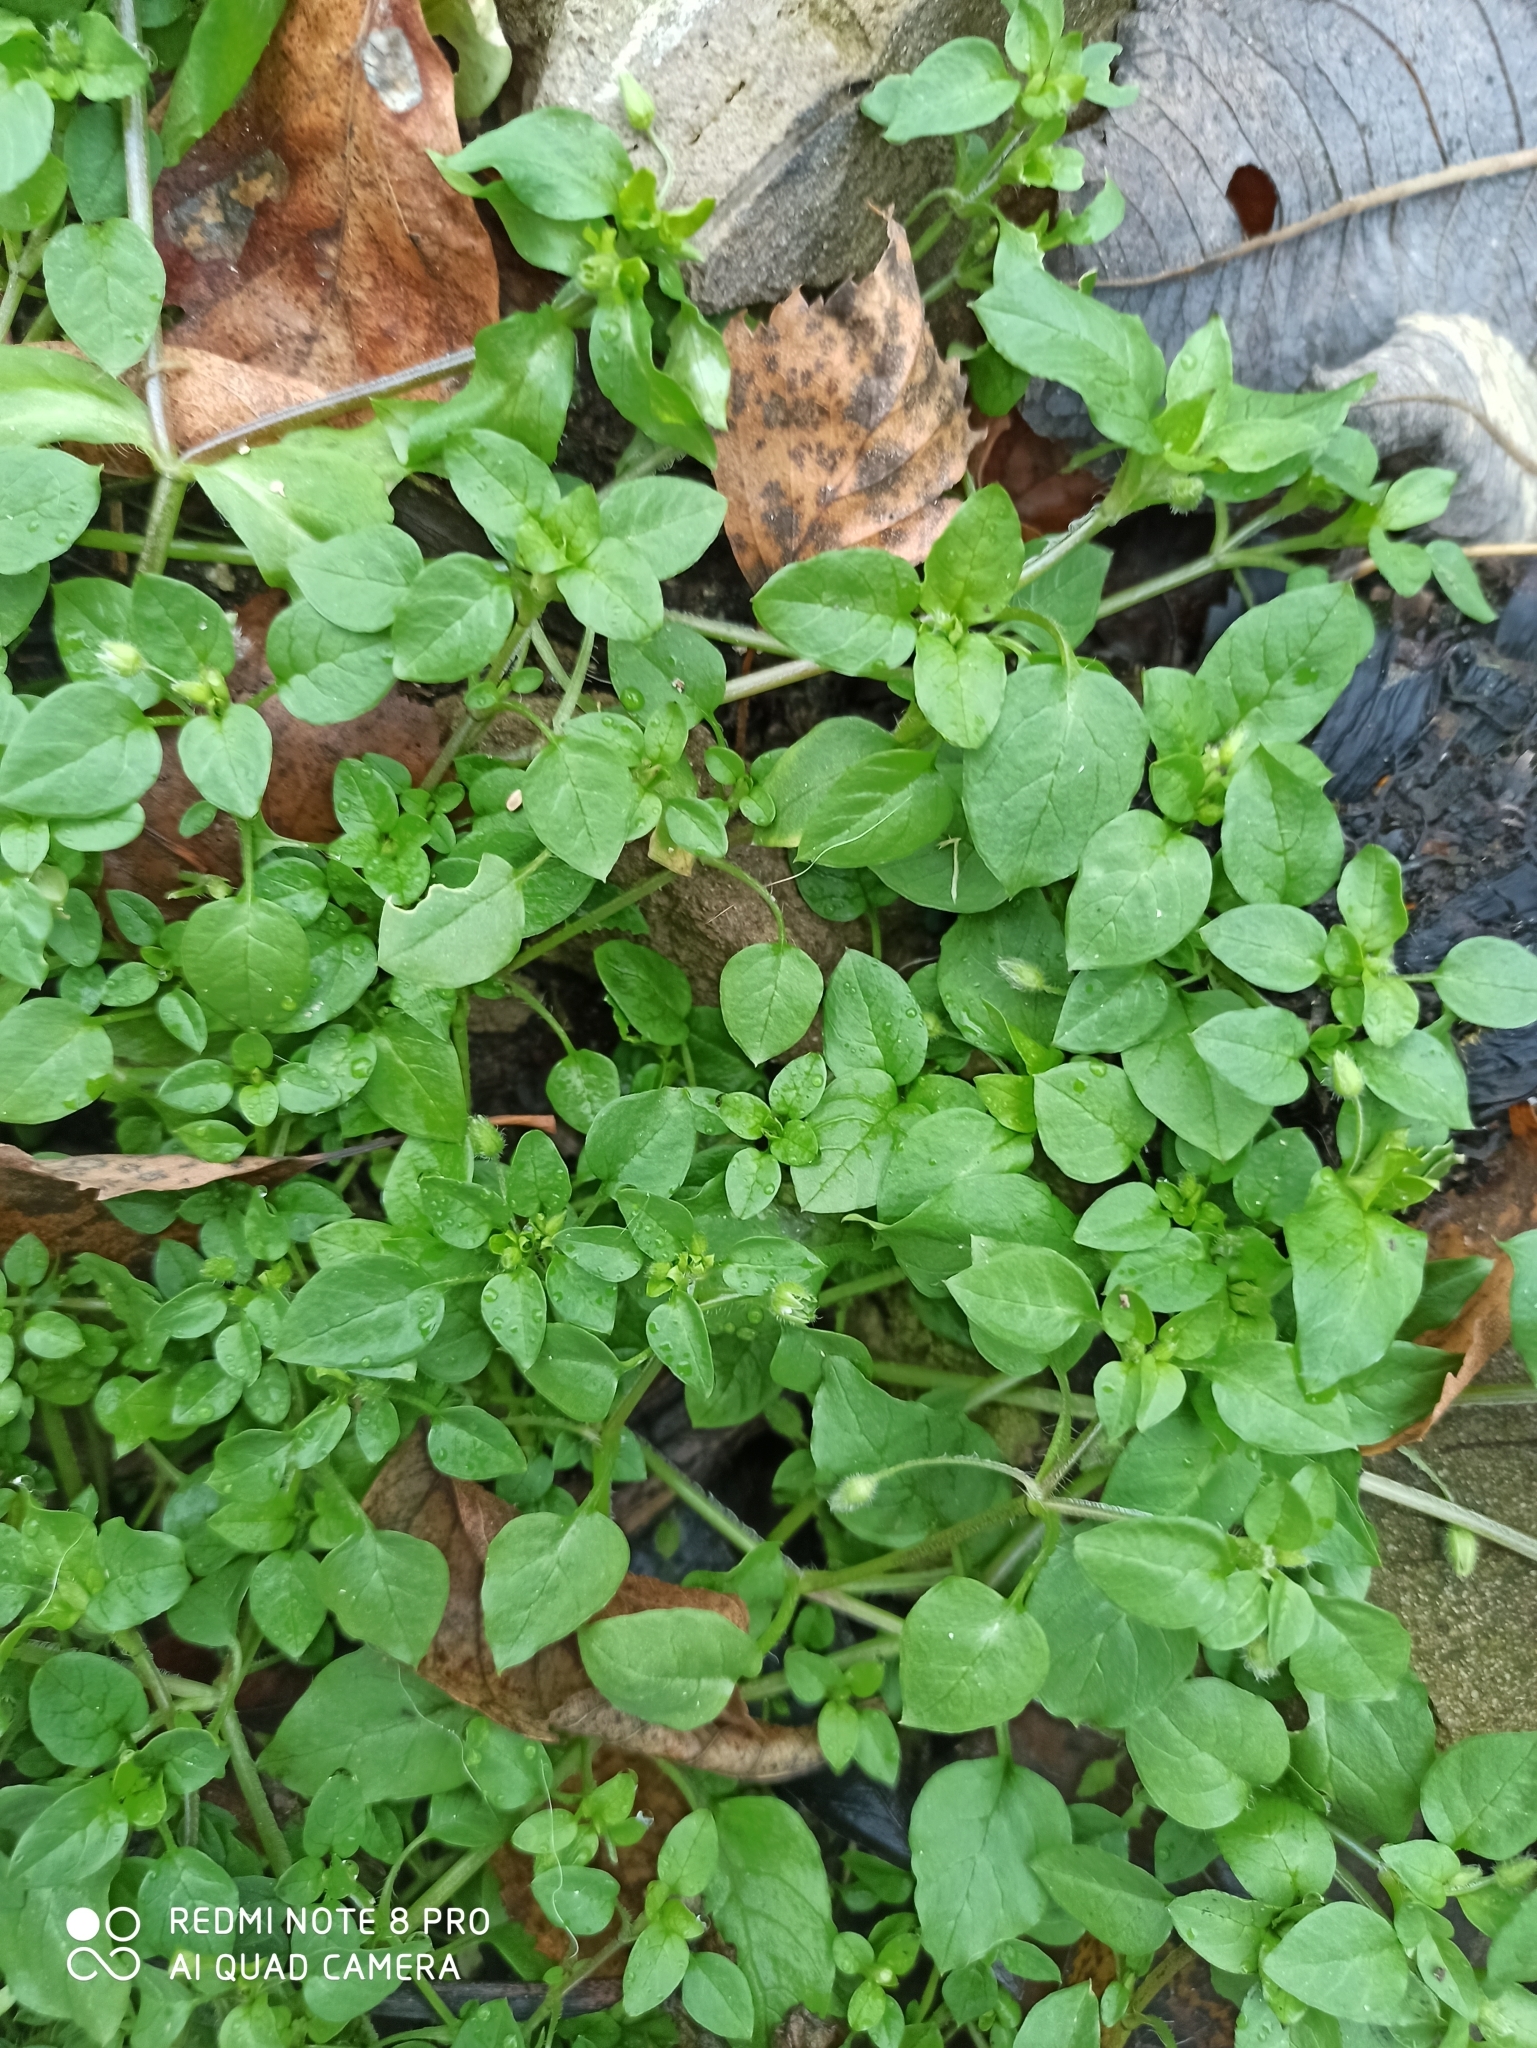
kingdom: Plantae
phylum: Tracheophyta
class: Magnoliopsida
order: Caryophyllales
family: Caryophyllaceae
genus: Stellaria
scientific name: Stellaria media
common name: Common chickweed
